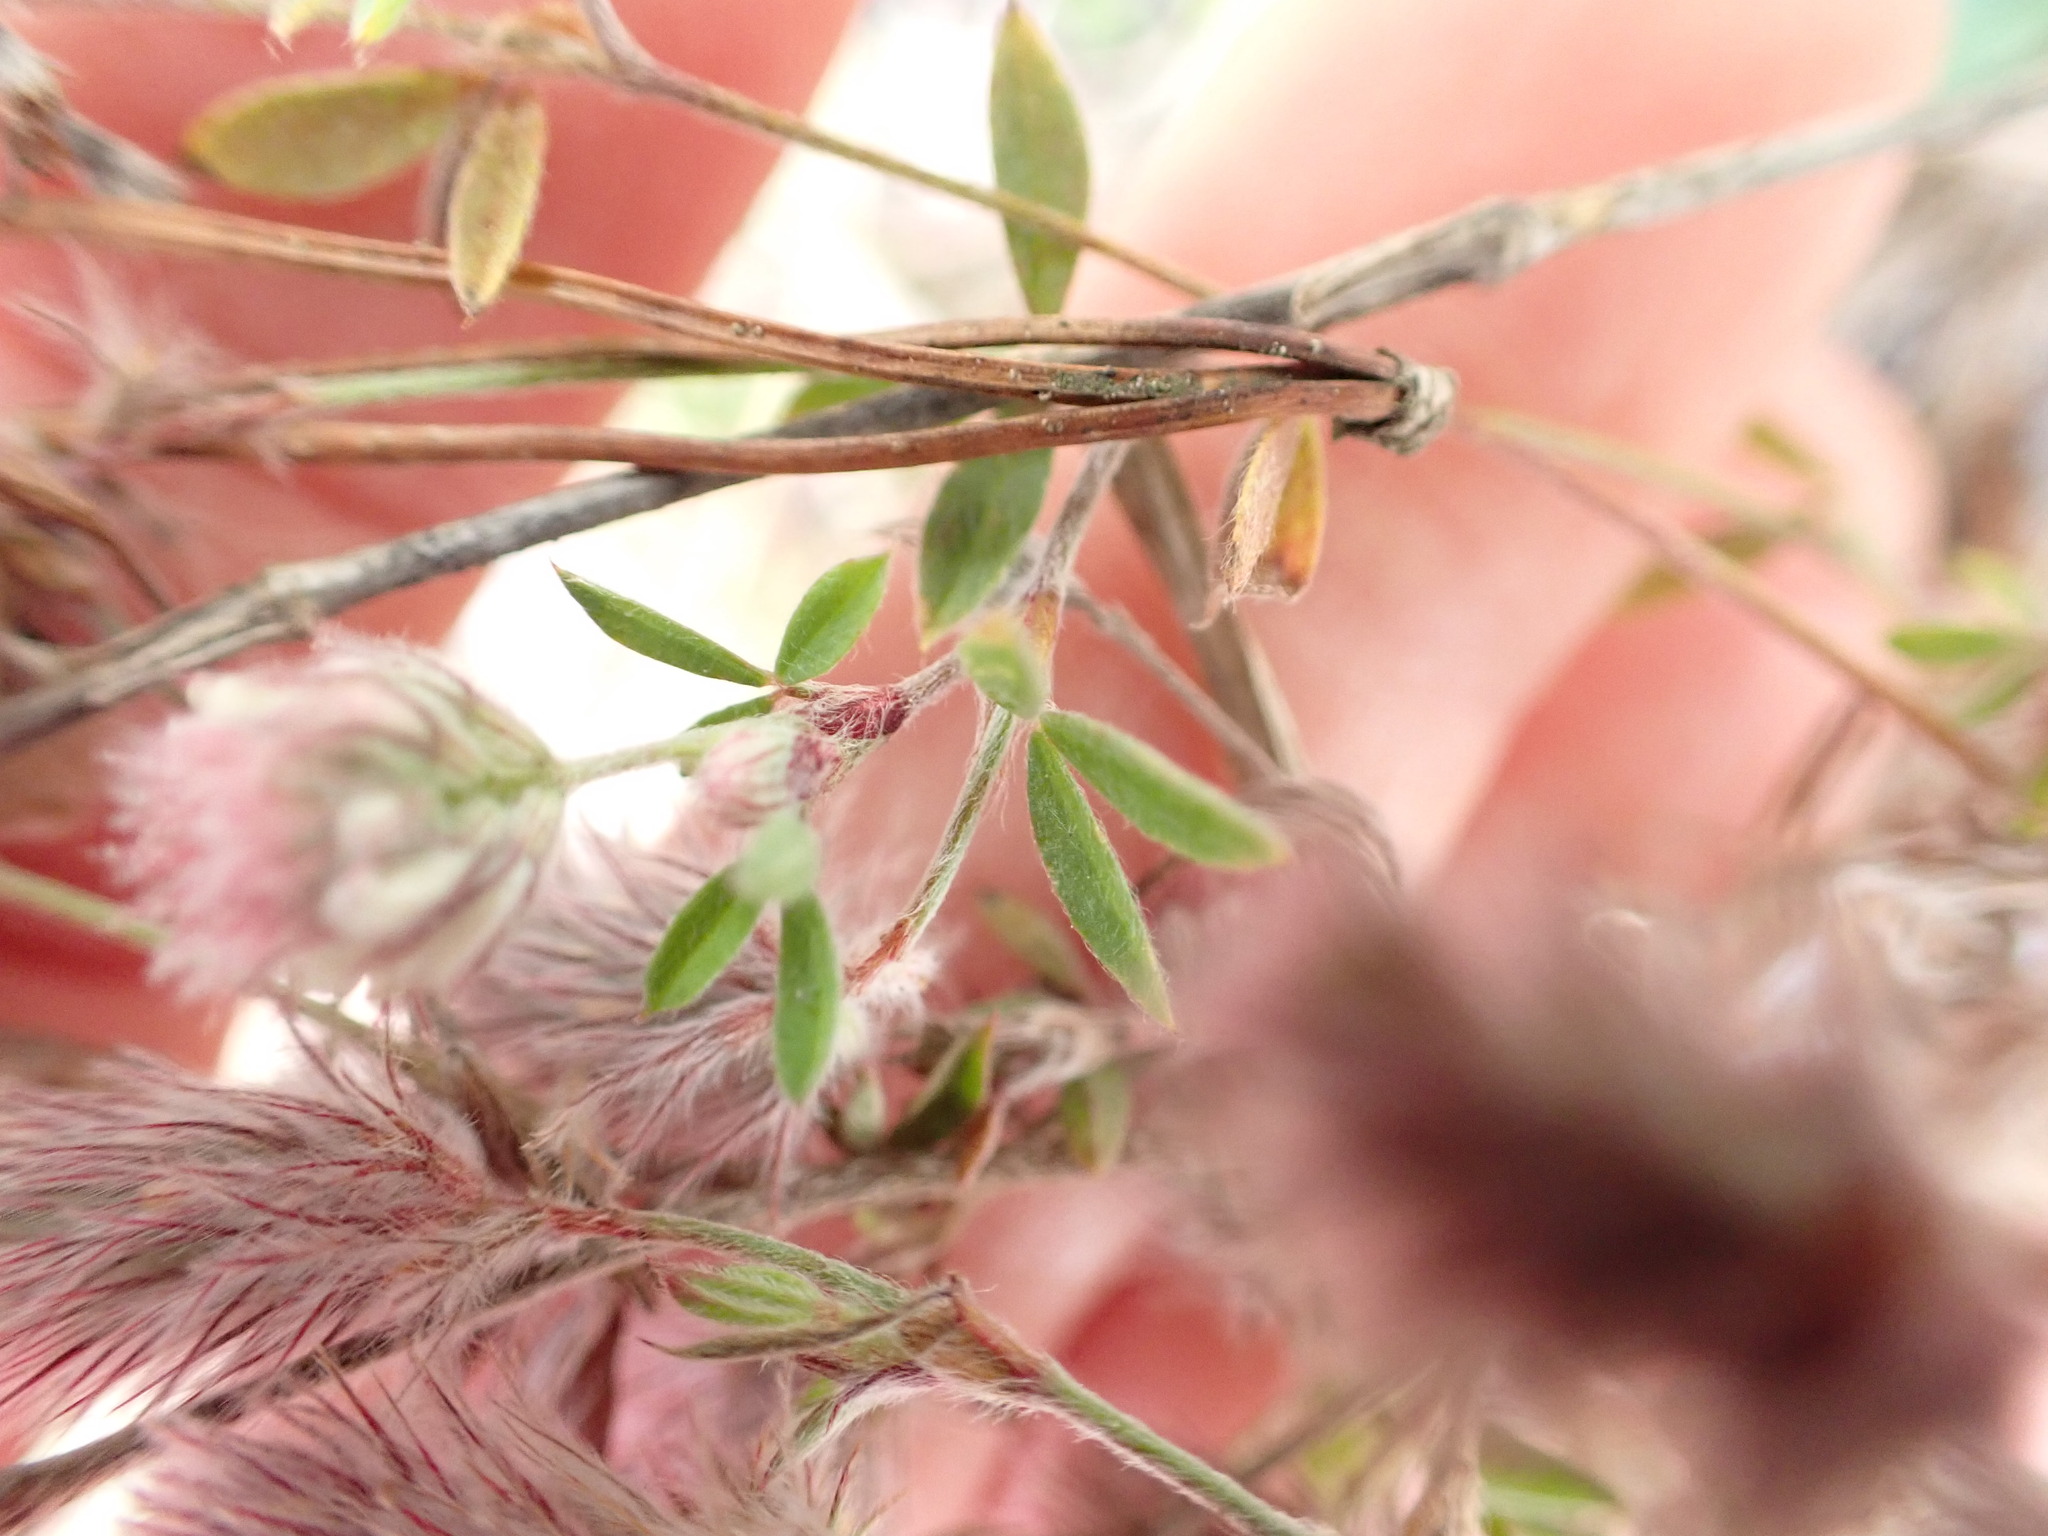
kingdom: Plantae
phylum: Tracheophyta
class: Magnoliopsida
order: Fabales
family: Fabaceae
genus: Trifolium
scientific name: Trifolium arvense
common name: Hare's-foot clover
